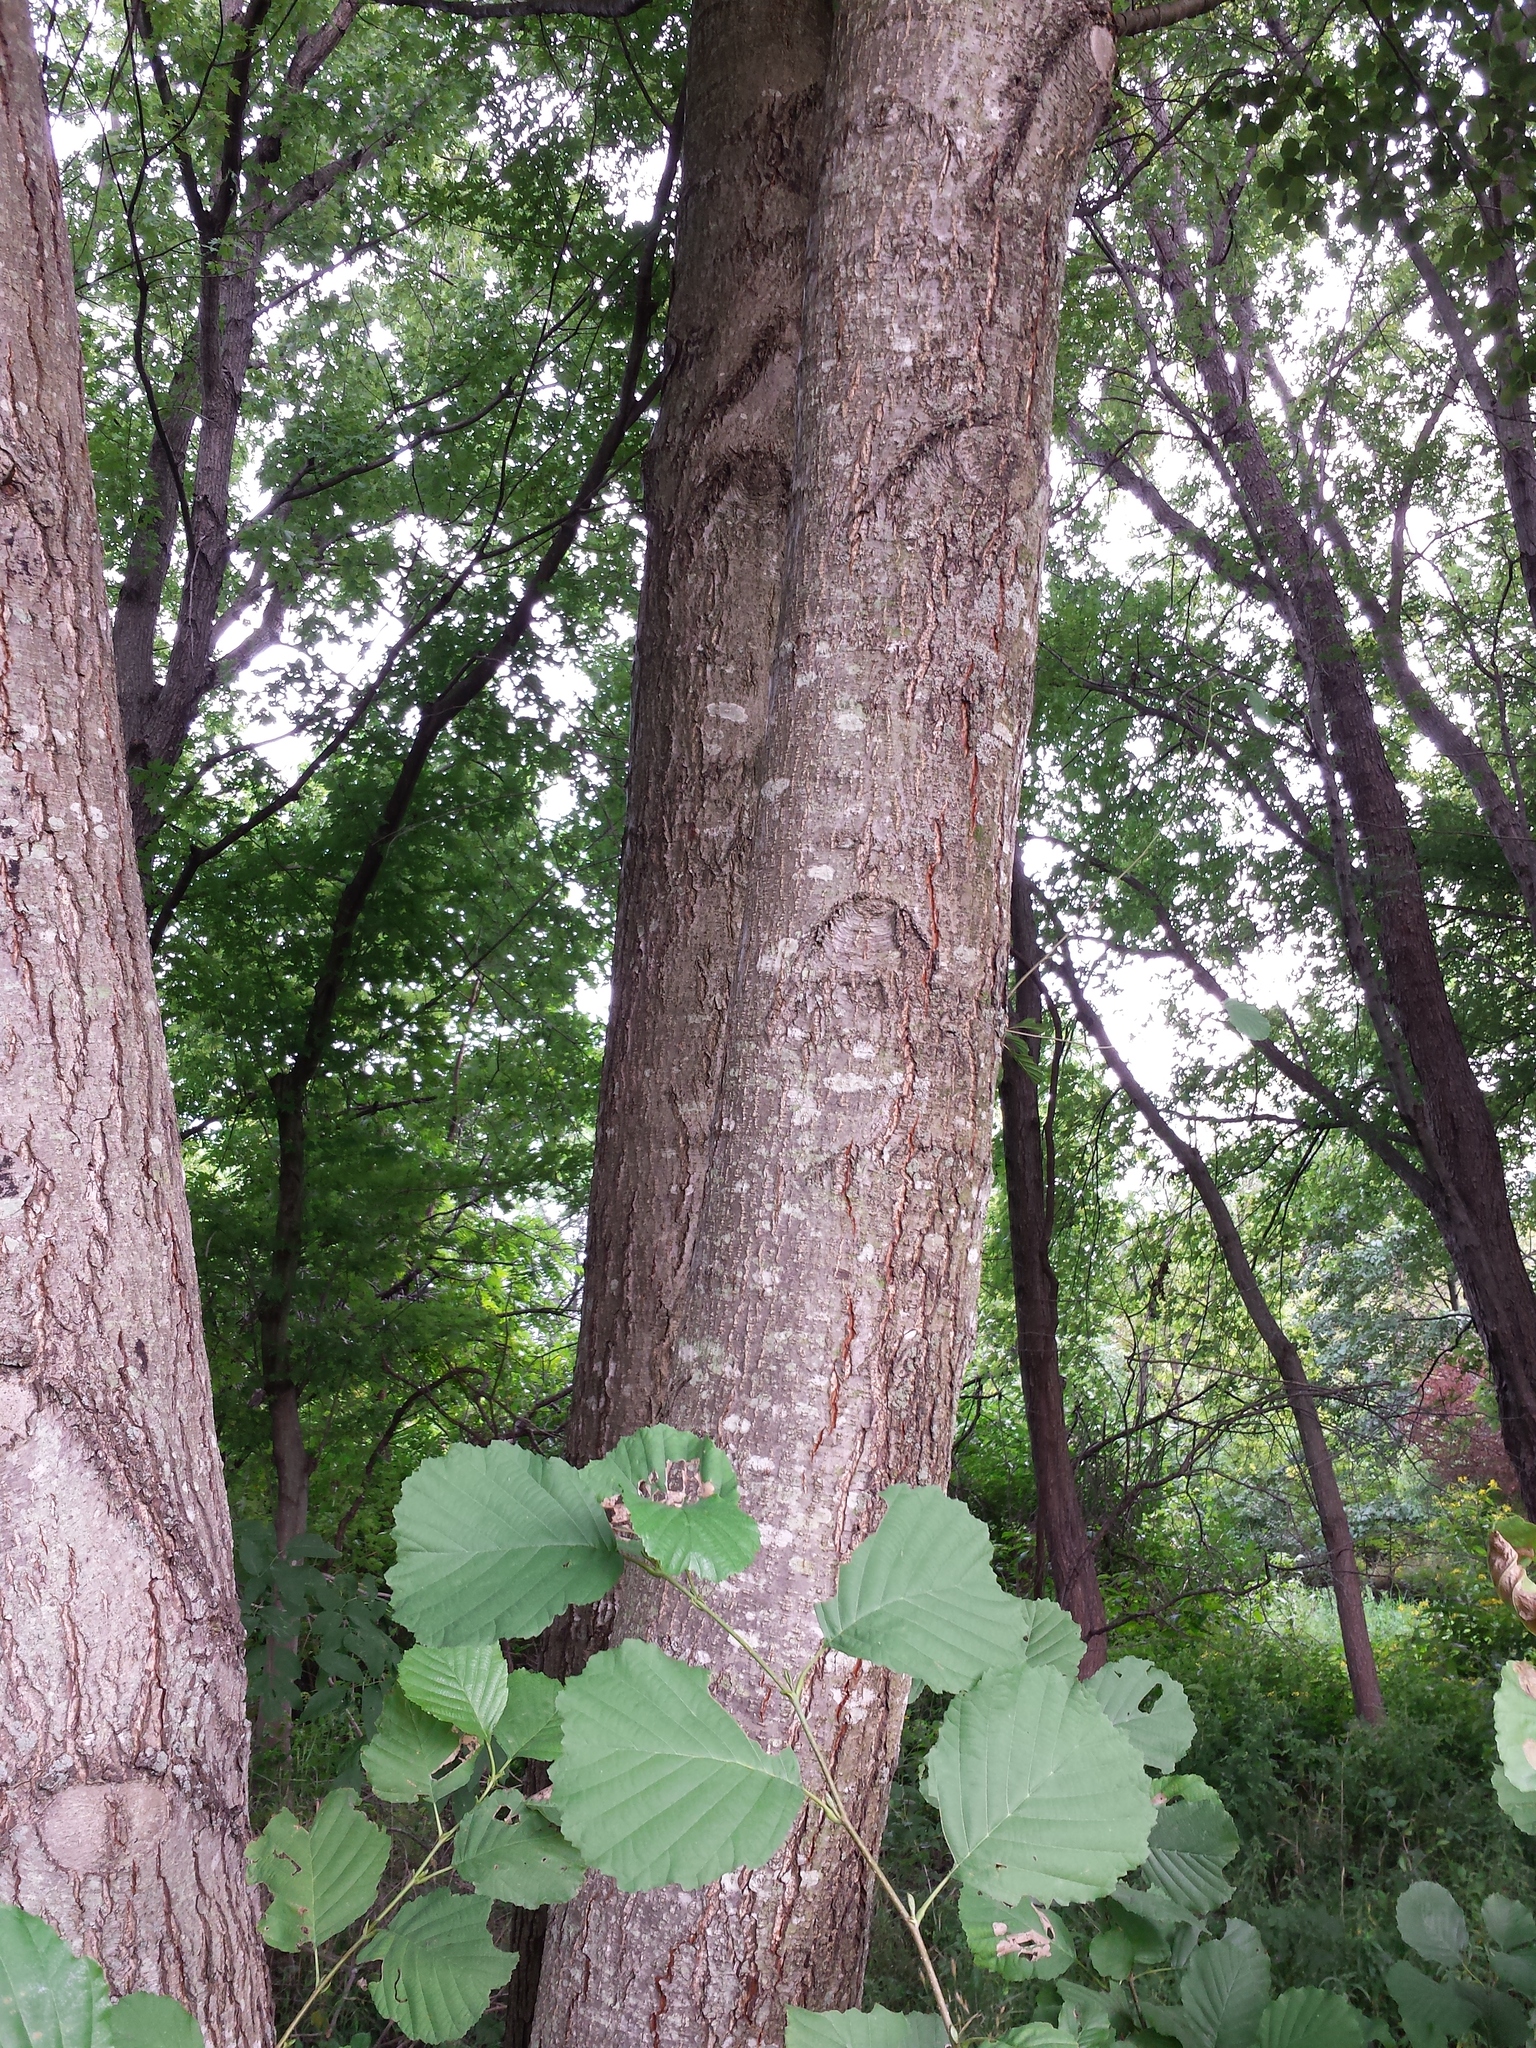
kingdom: Plantae
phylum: Tracheophyta
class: Magnoliopsida
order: Fagales
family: Betulaceae
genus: Alnus
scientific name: Alnus glutinosa
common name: Black alder
